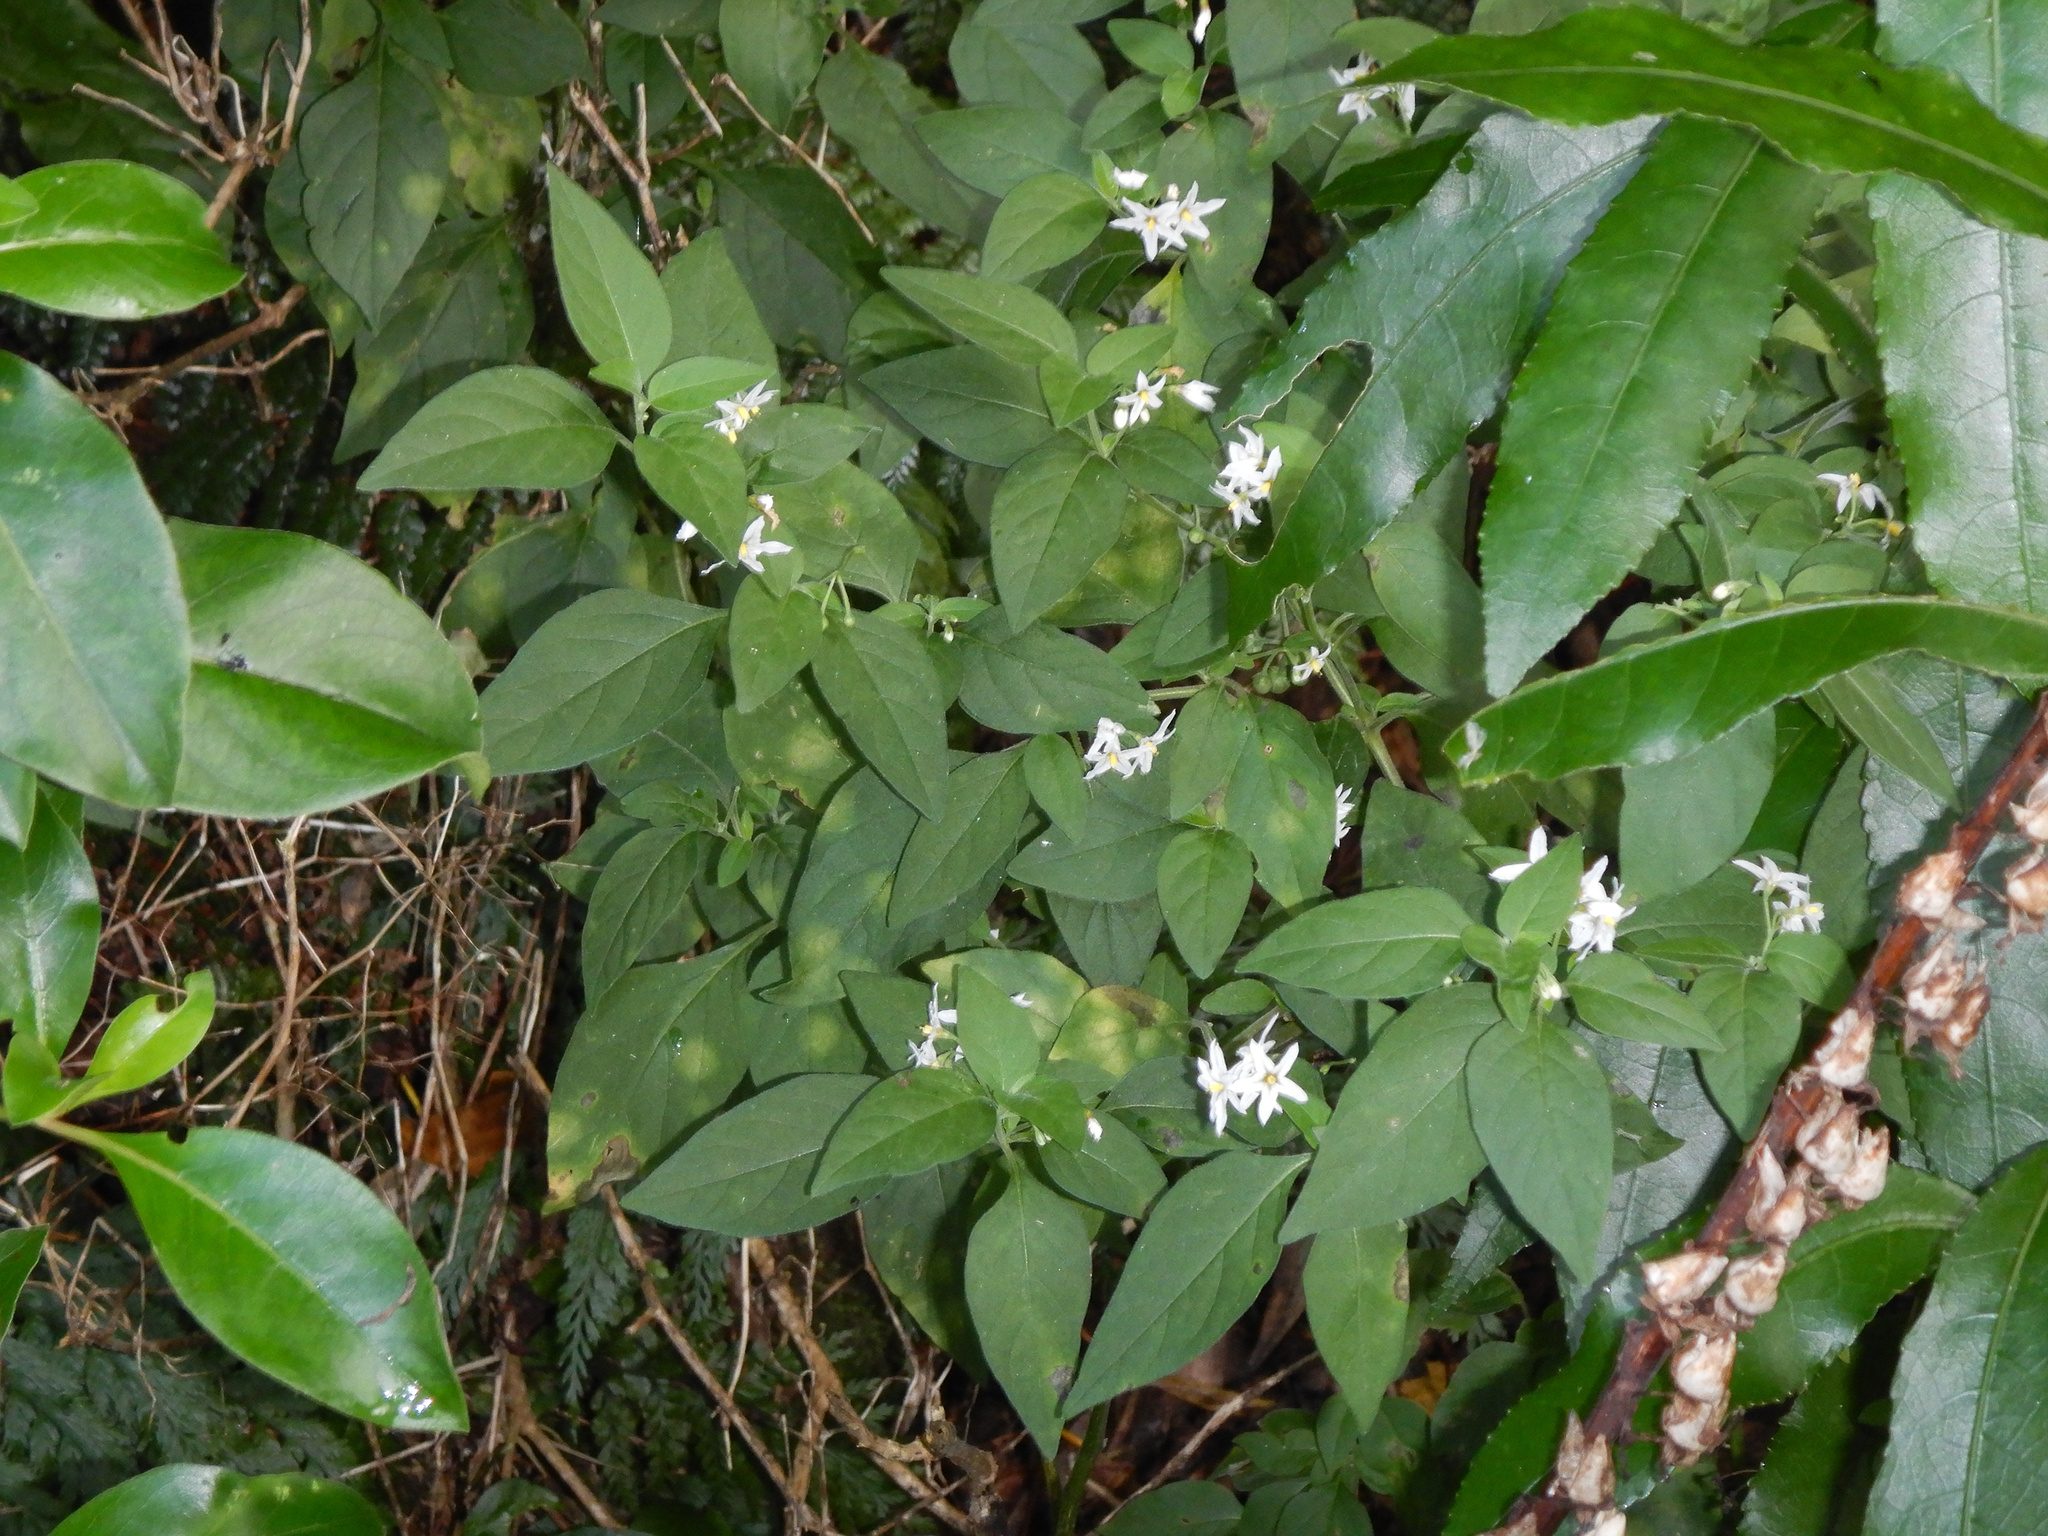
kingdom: Plantae
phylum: Tracheophyta
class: Magnoliopsida
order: Solanales
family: Solanaceae
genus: Solanum
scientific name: Solanum chenopodioides
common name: Tall nightshade
